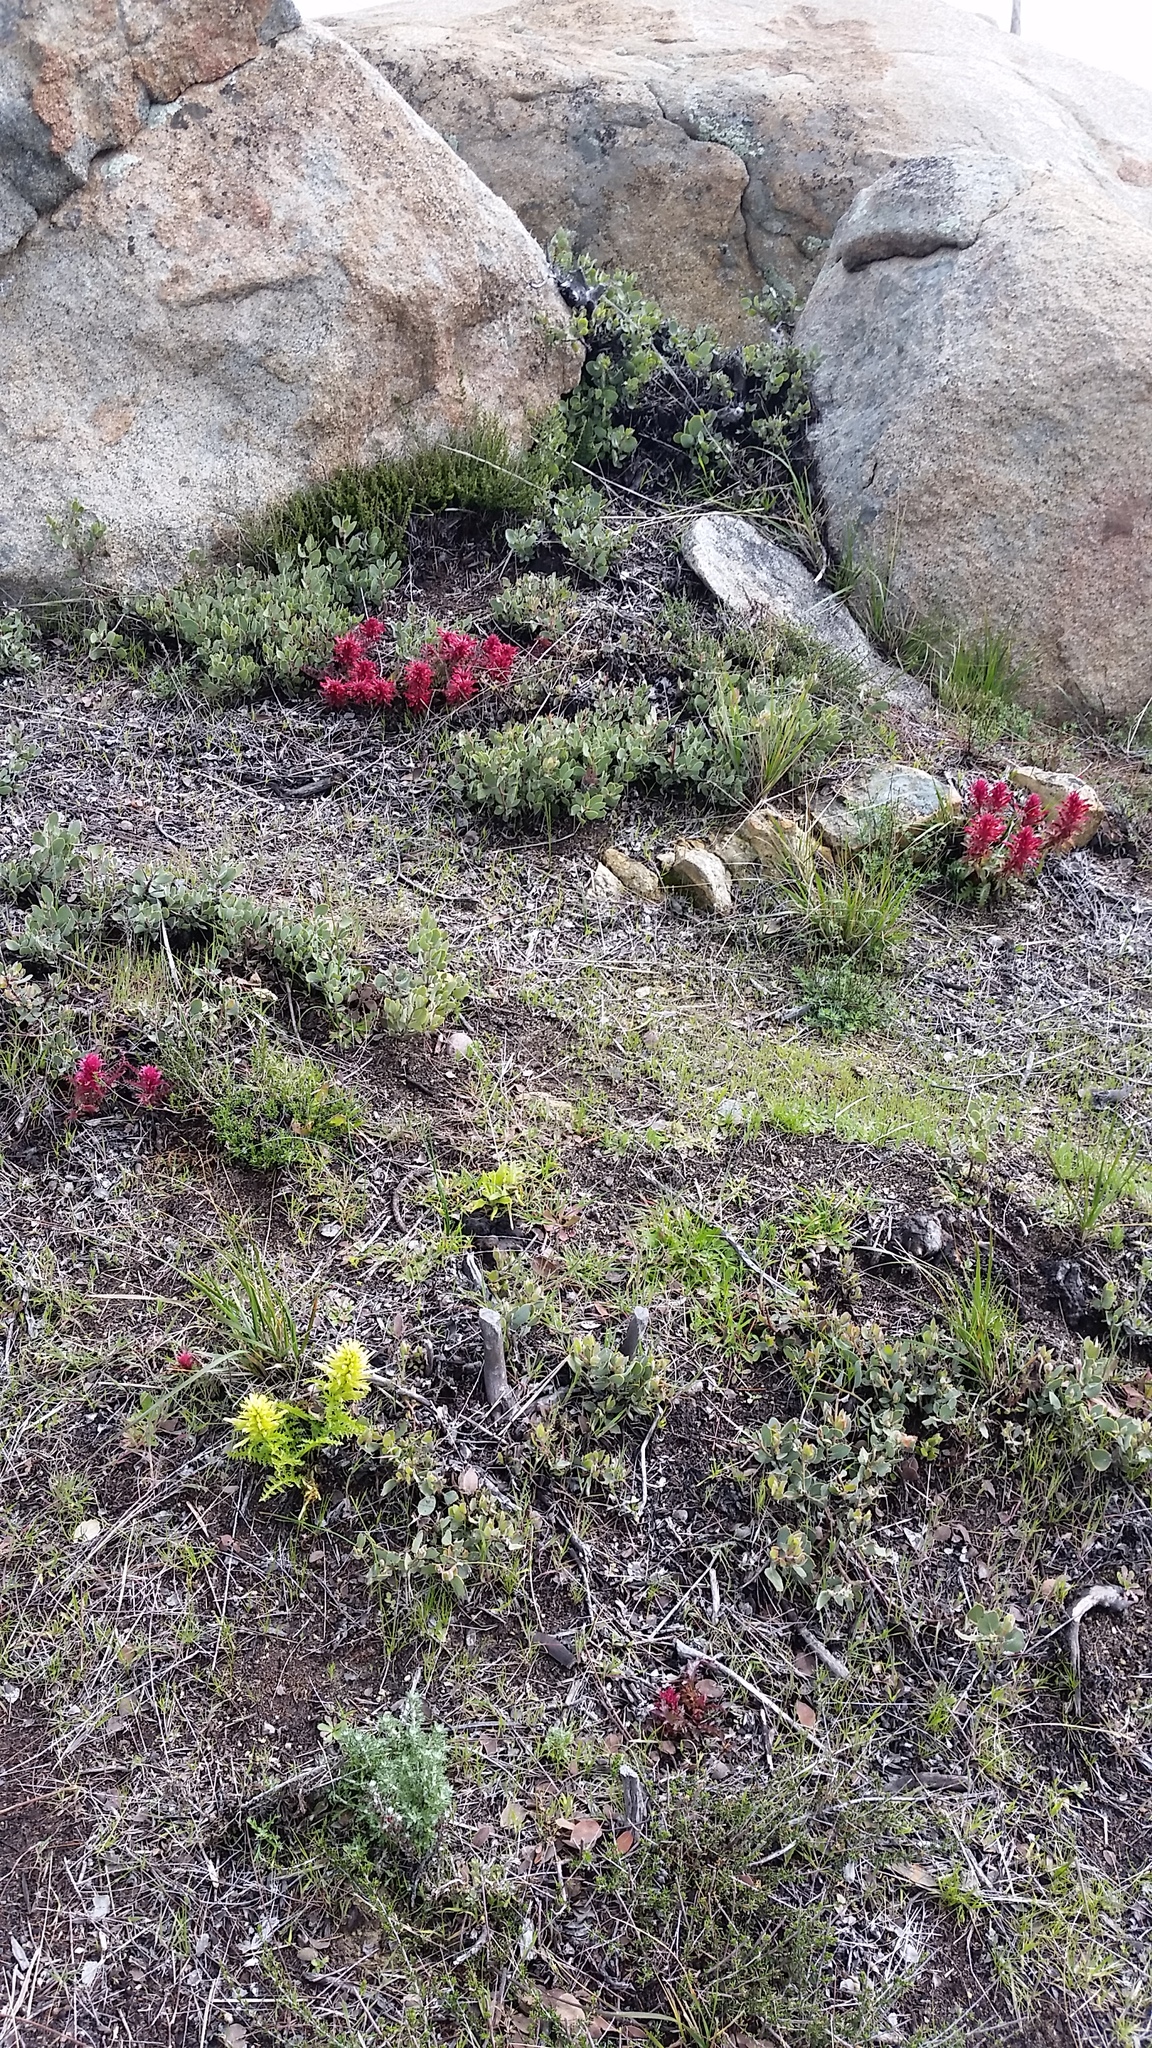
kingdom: Plantae
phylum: Tracheophyta
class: Magnoliopsida
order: Lamiales
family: Orobanchaceae
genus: Pedicularis
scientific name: Pedicularis densiflora
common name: Indian warrior
